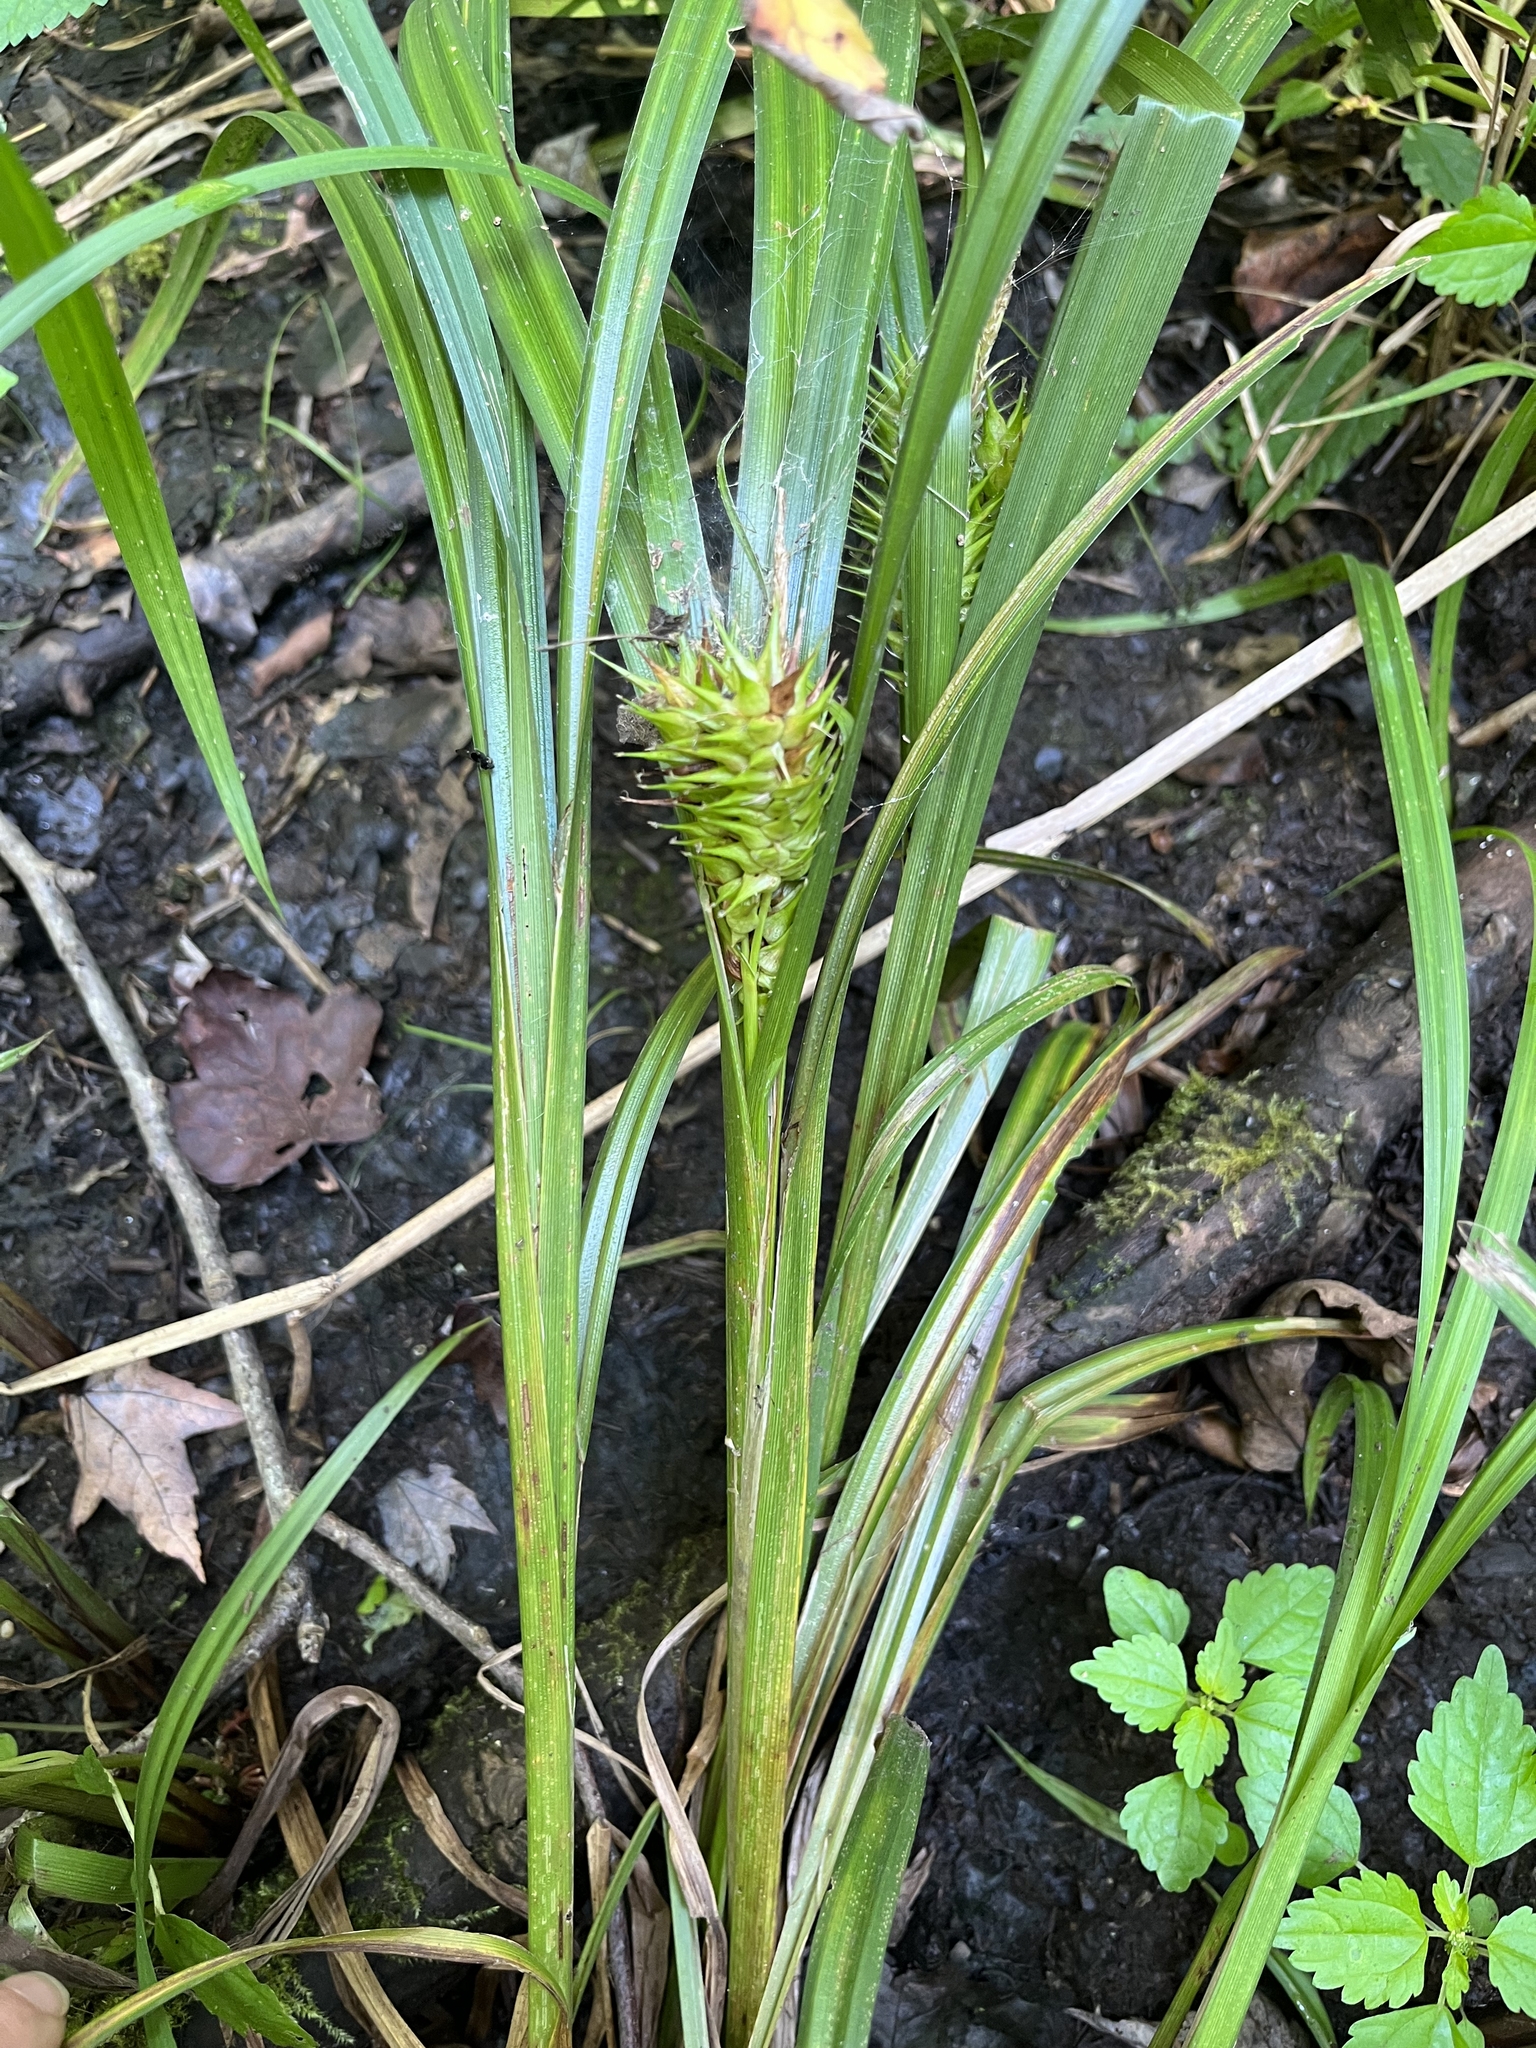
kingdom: Plantae
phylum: Tracheophyta
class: Liliopsida
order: Poales
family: Cyperaceae
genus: Carex
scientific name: Carex lupulina
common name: Hop sedge
